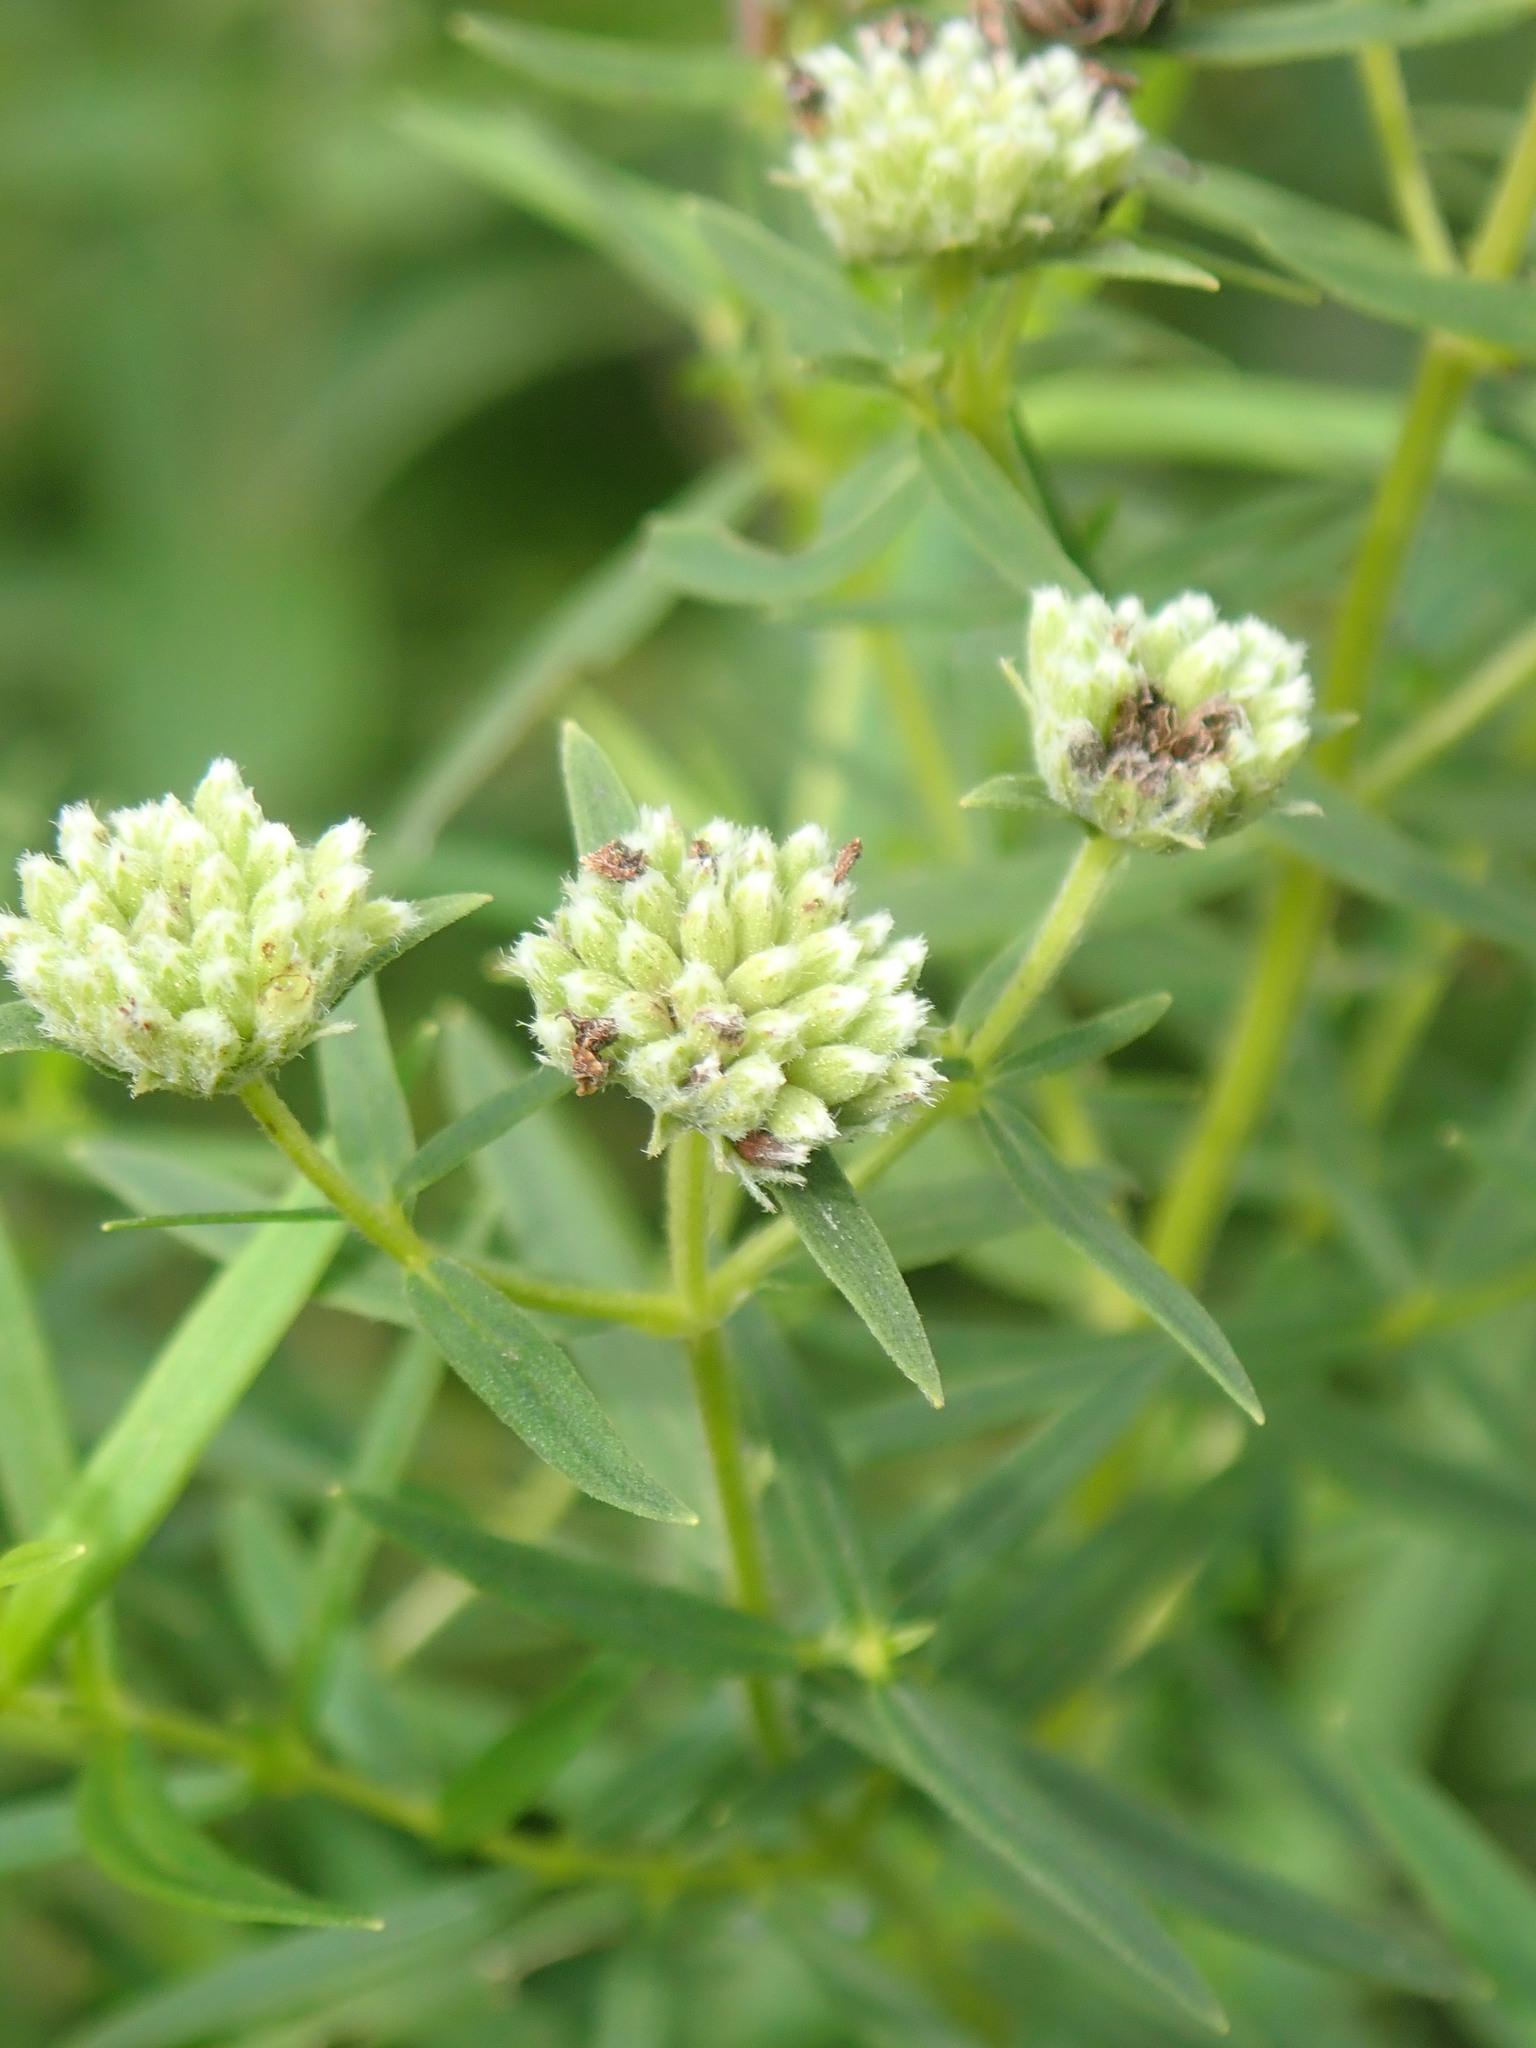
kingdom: Plantae
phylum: Tracheophyta
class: Magnoliopsida
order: Lamiales
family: Lamiaceae
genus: Pycnanthemum
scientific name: Pycnanthemum virginianum
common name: Virginia mountain-mint
